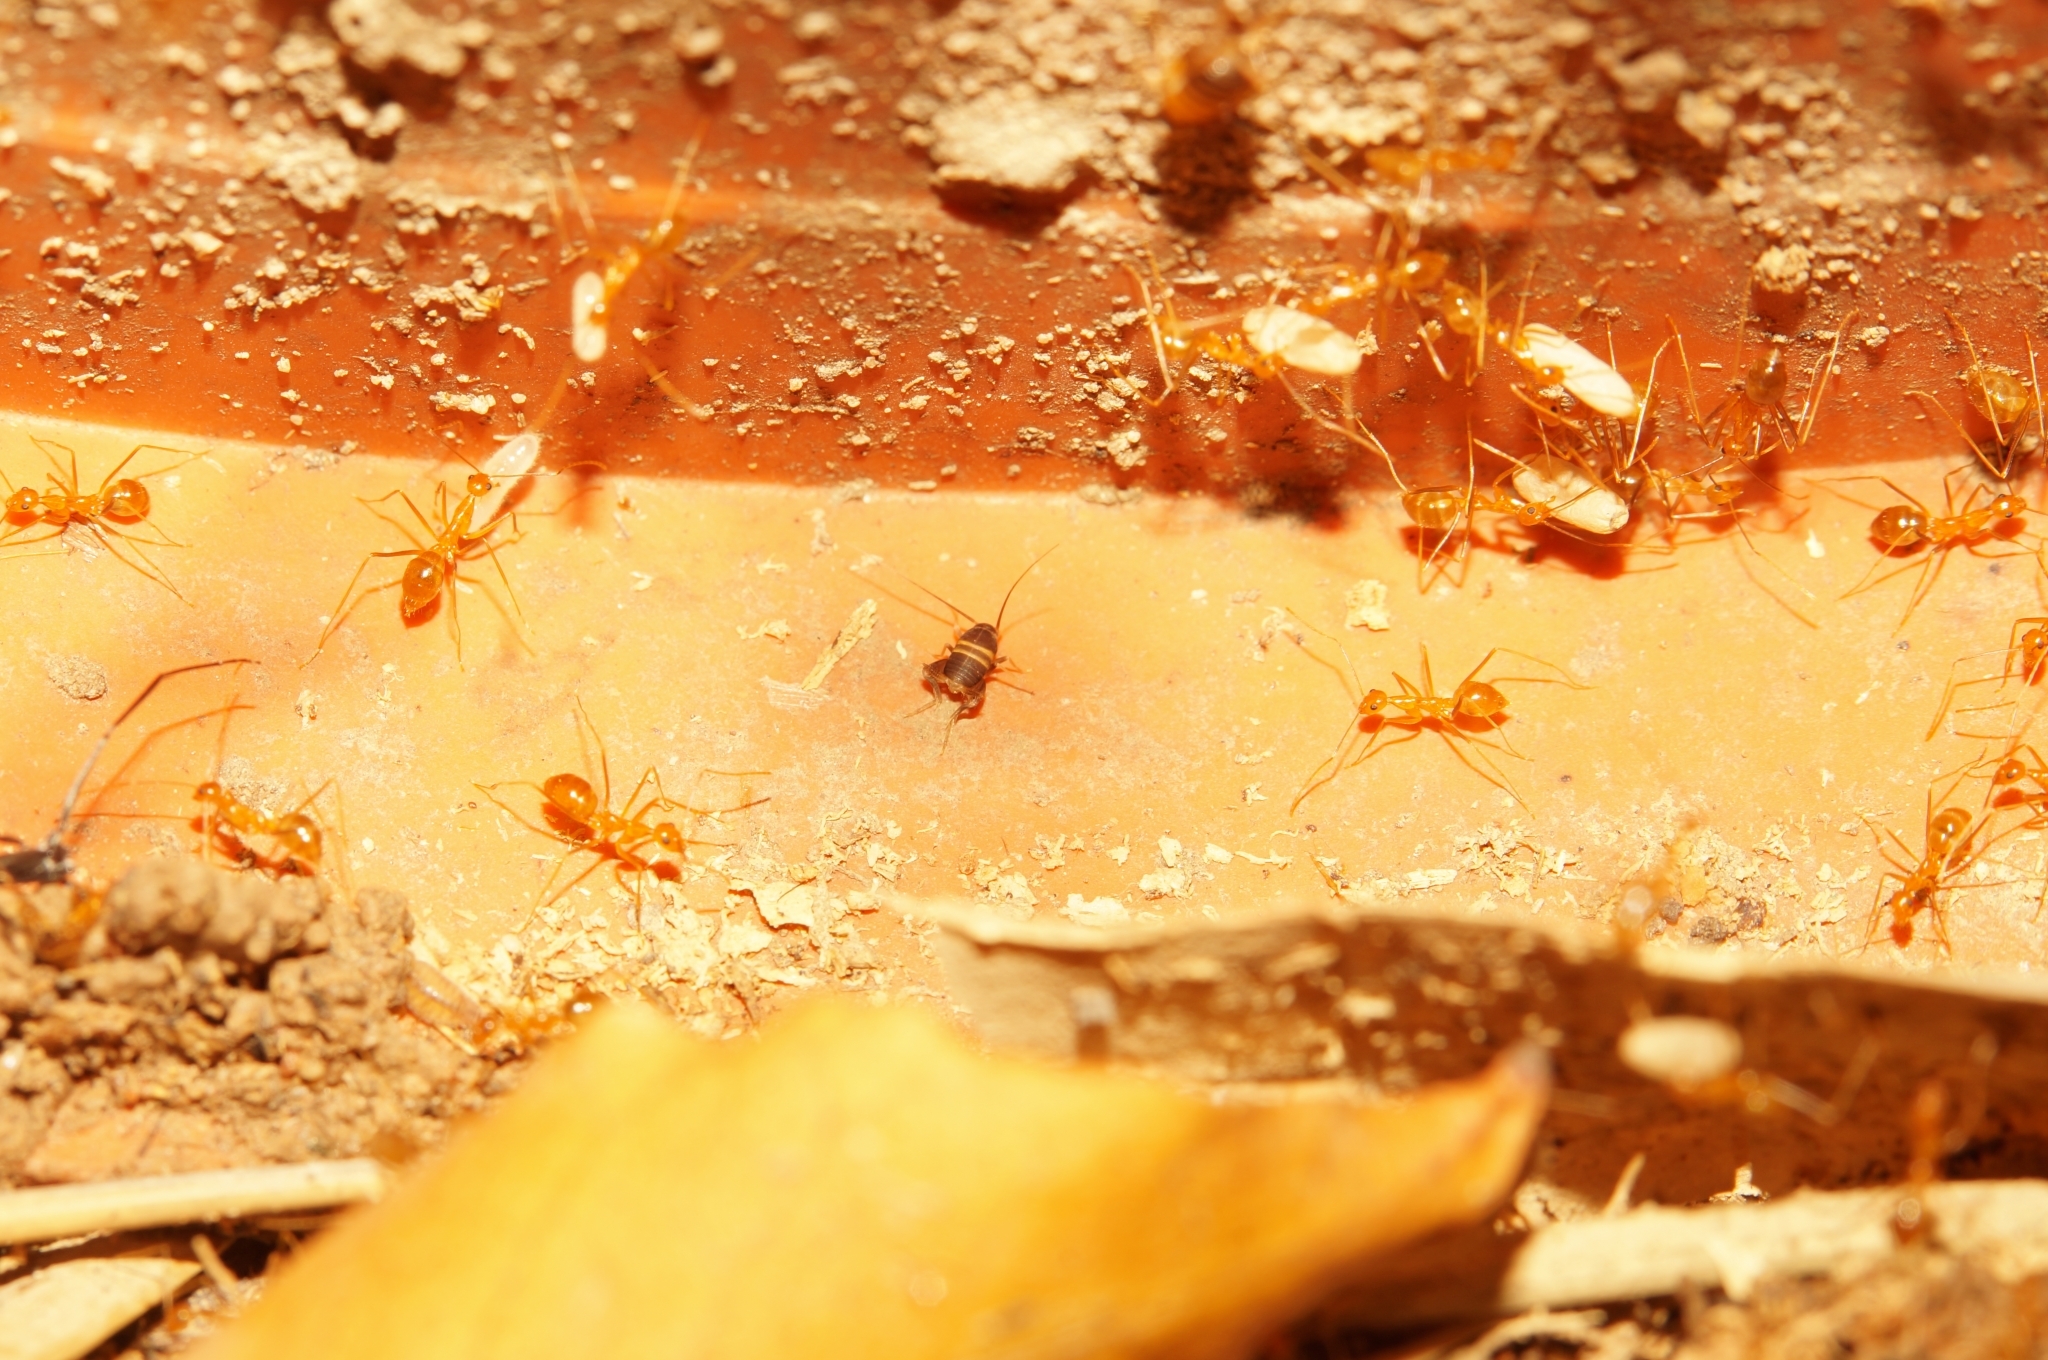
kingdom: Animalia
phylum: Arthropoda
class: Insecta
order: Hymenoptera
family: Formicidae
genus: Anoplolepis
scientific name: Anoplolepis gracilipes
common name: Ant
